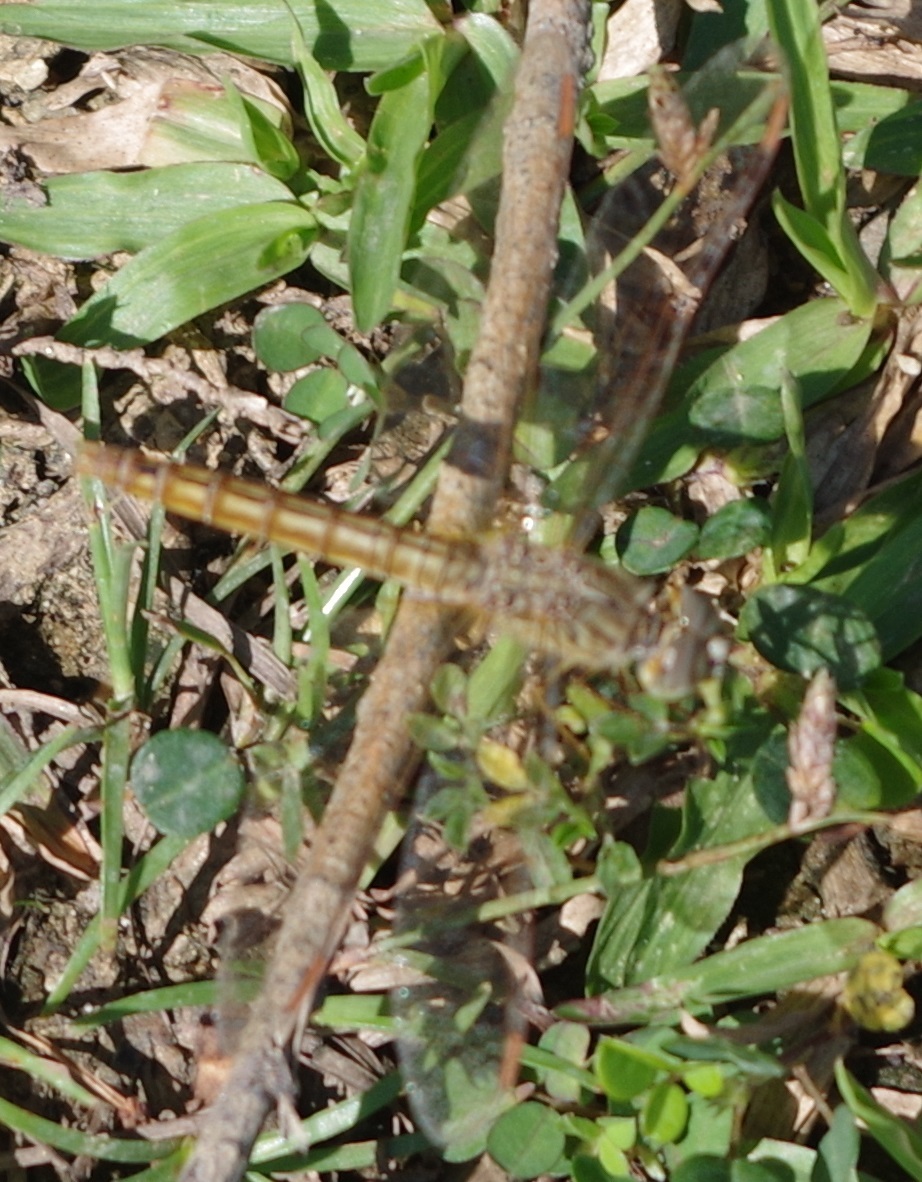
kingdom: Animalia
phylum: Arthropoda
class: Insecta
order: Odonata
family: Libellulidae
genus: Brachythemis
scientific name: Brachythemis contaminata
